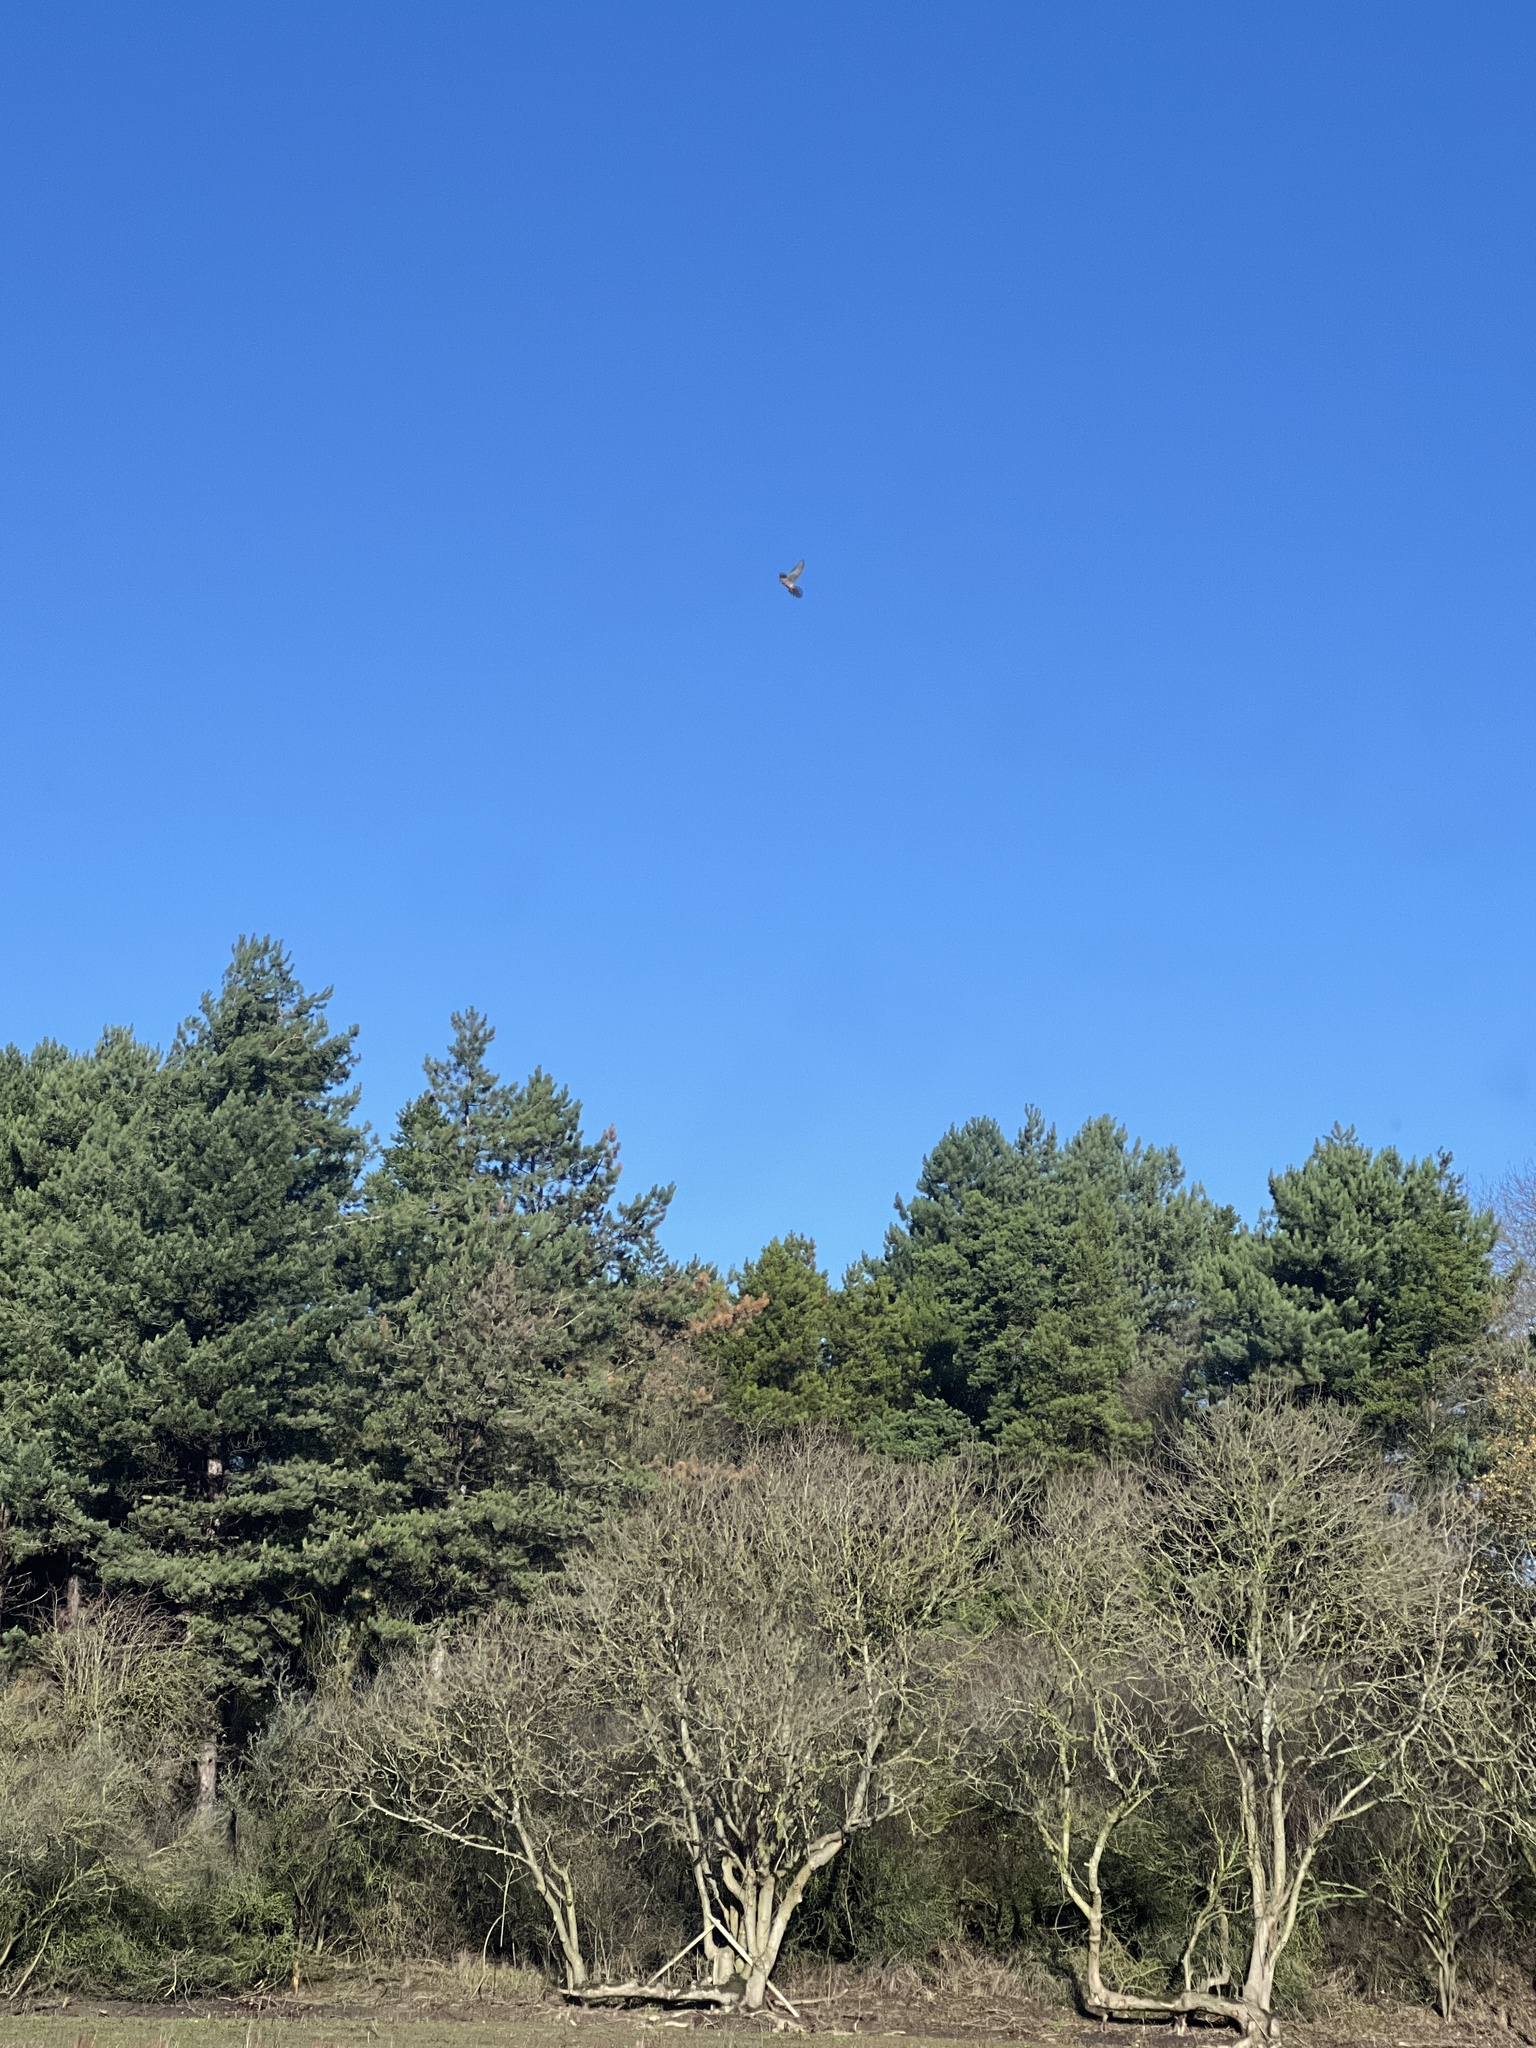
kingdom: Animalia
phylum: Chordata
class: Aves
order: Falconiformes
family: Falconidae
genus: Falco
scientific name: Falco tinnunculus
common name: Common kestrel
